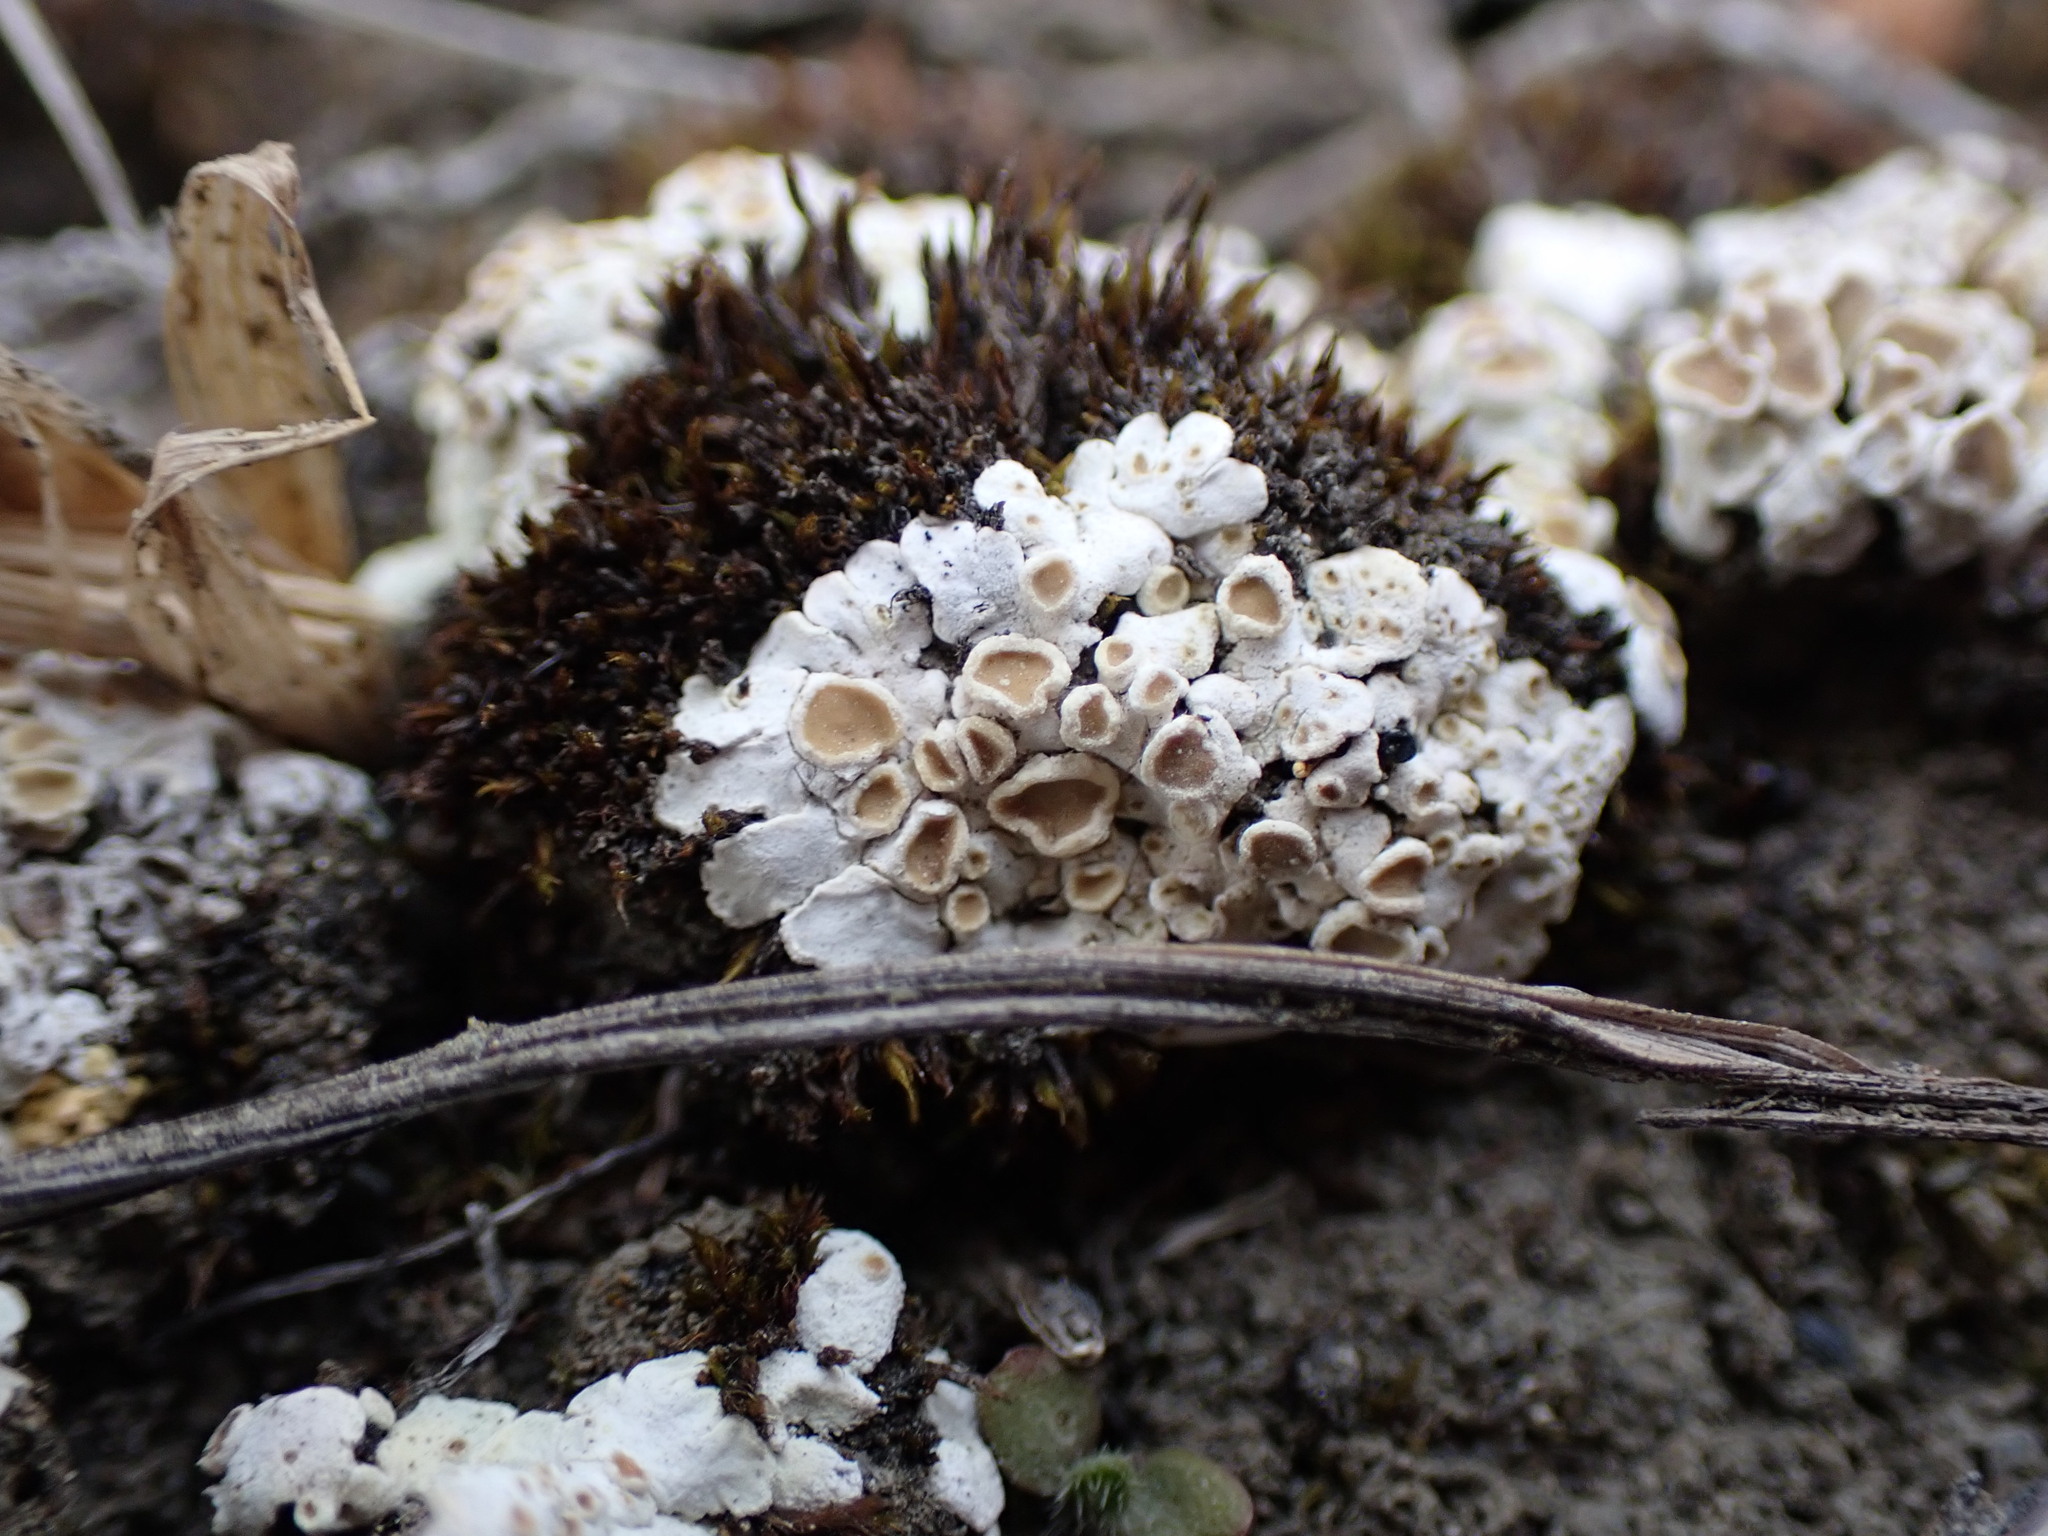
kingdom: Fungi
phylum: Ascomycota
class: Lecanoromycetes
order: Lecanorales
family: Stereocaulaceae
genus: Squamarina
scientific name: Squamarina lentigera
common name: Scaly breck-lichen
